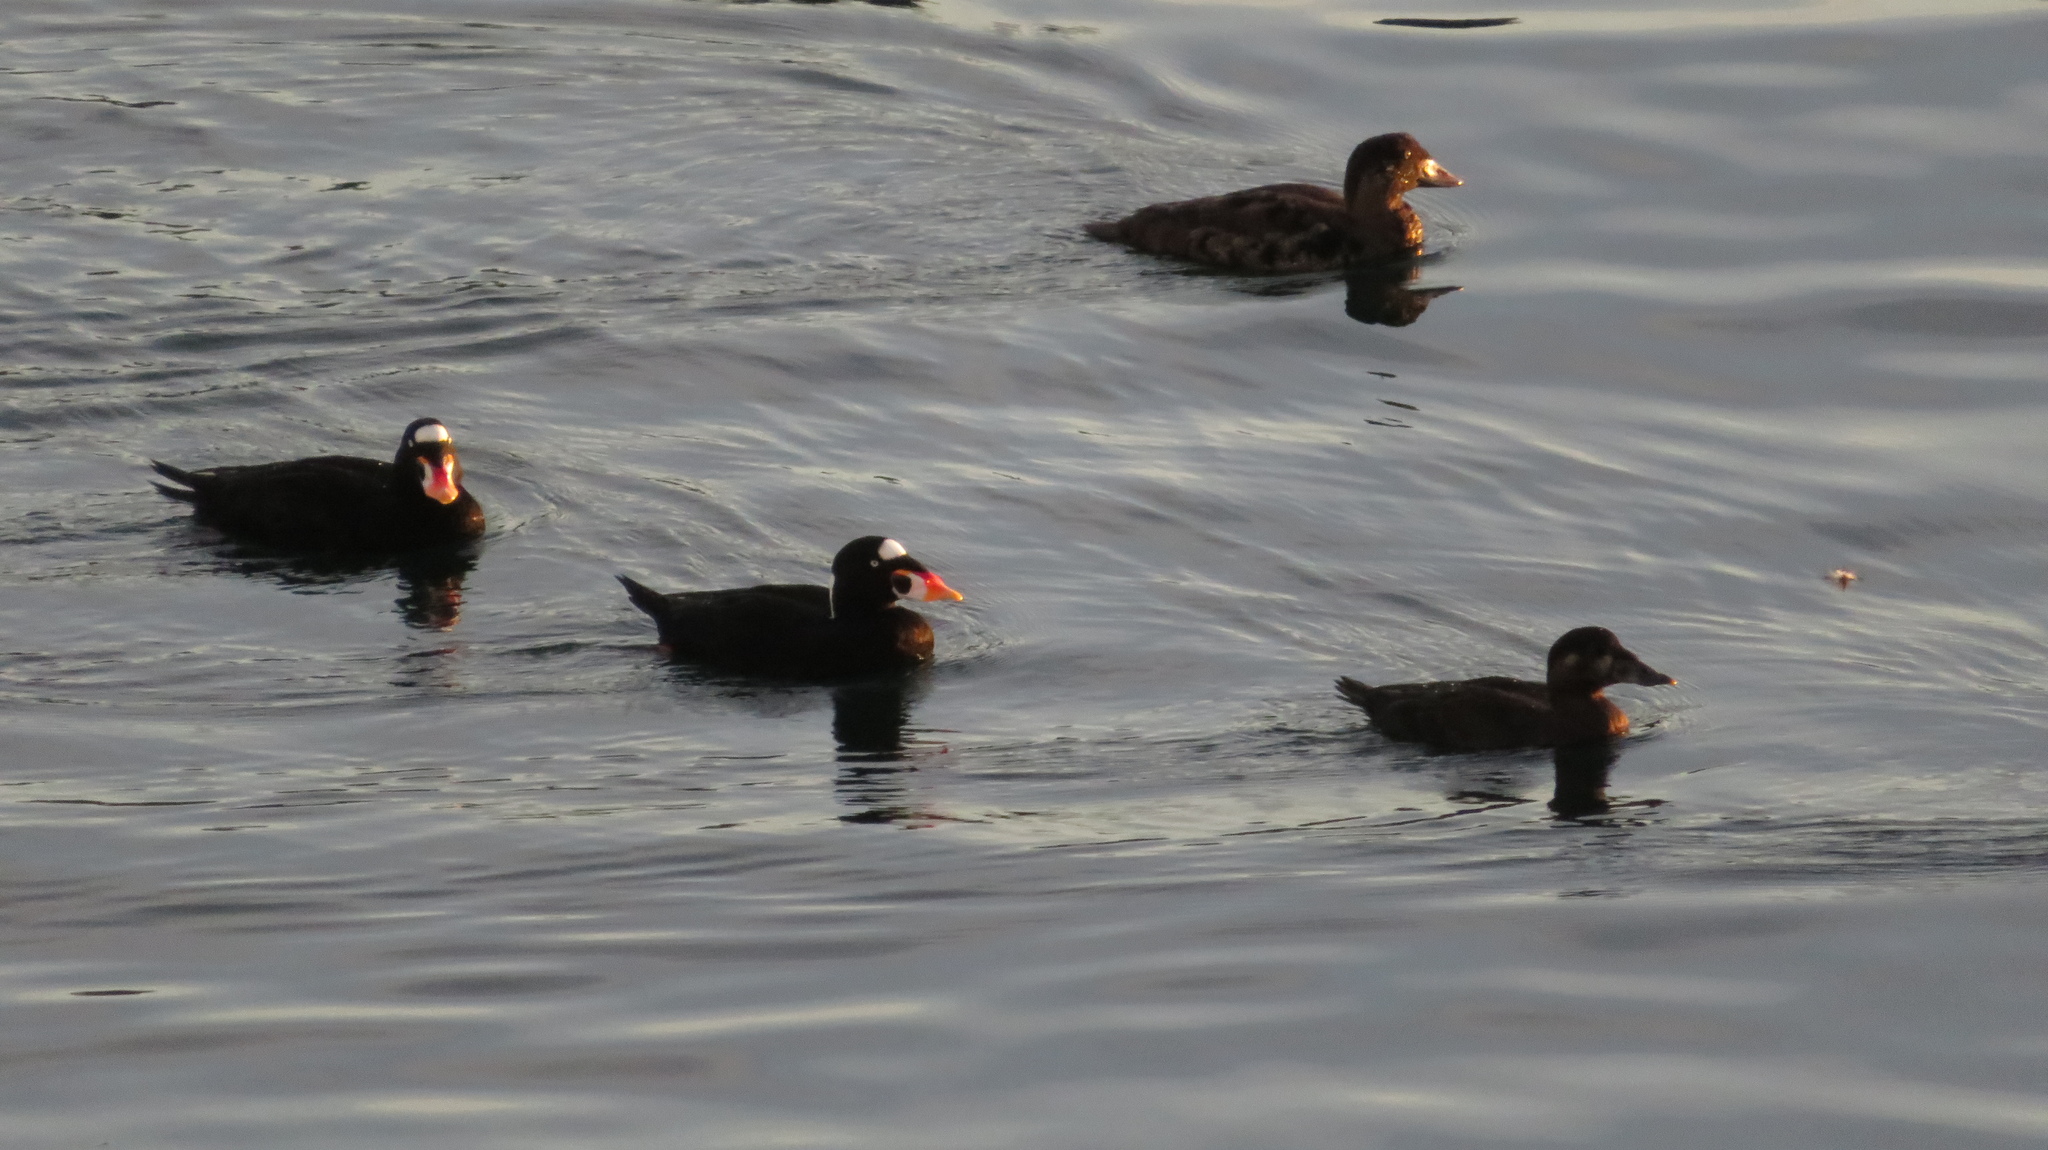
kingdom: Animalia
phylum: Chordata
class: Aves
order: Anseriformes
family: Anatidae
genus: Melanitta
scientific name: Melanitta perspicillata
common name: Surf scoter
